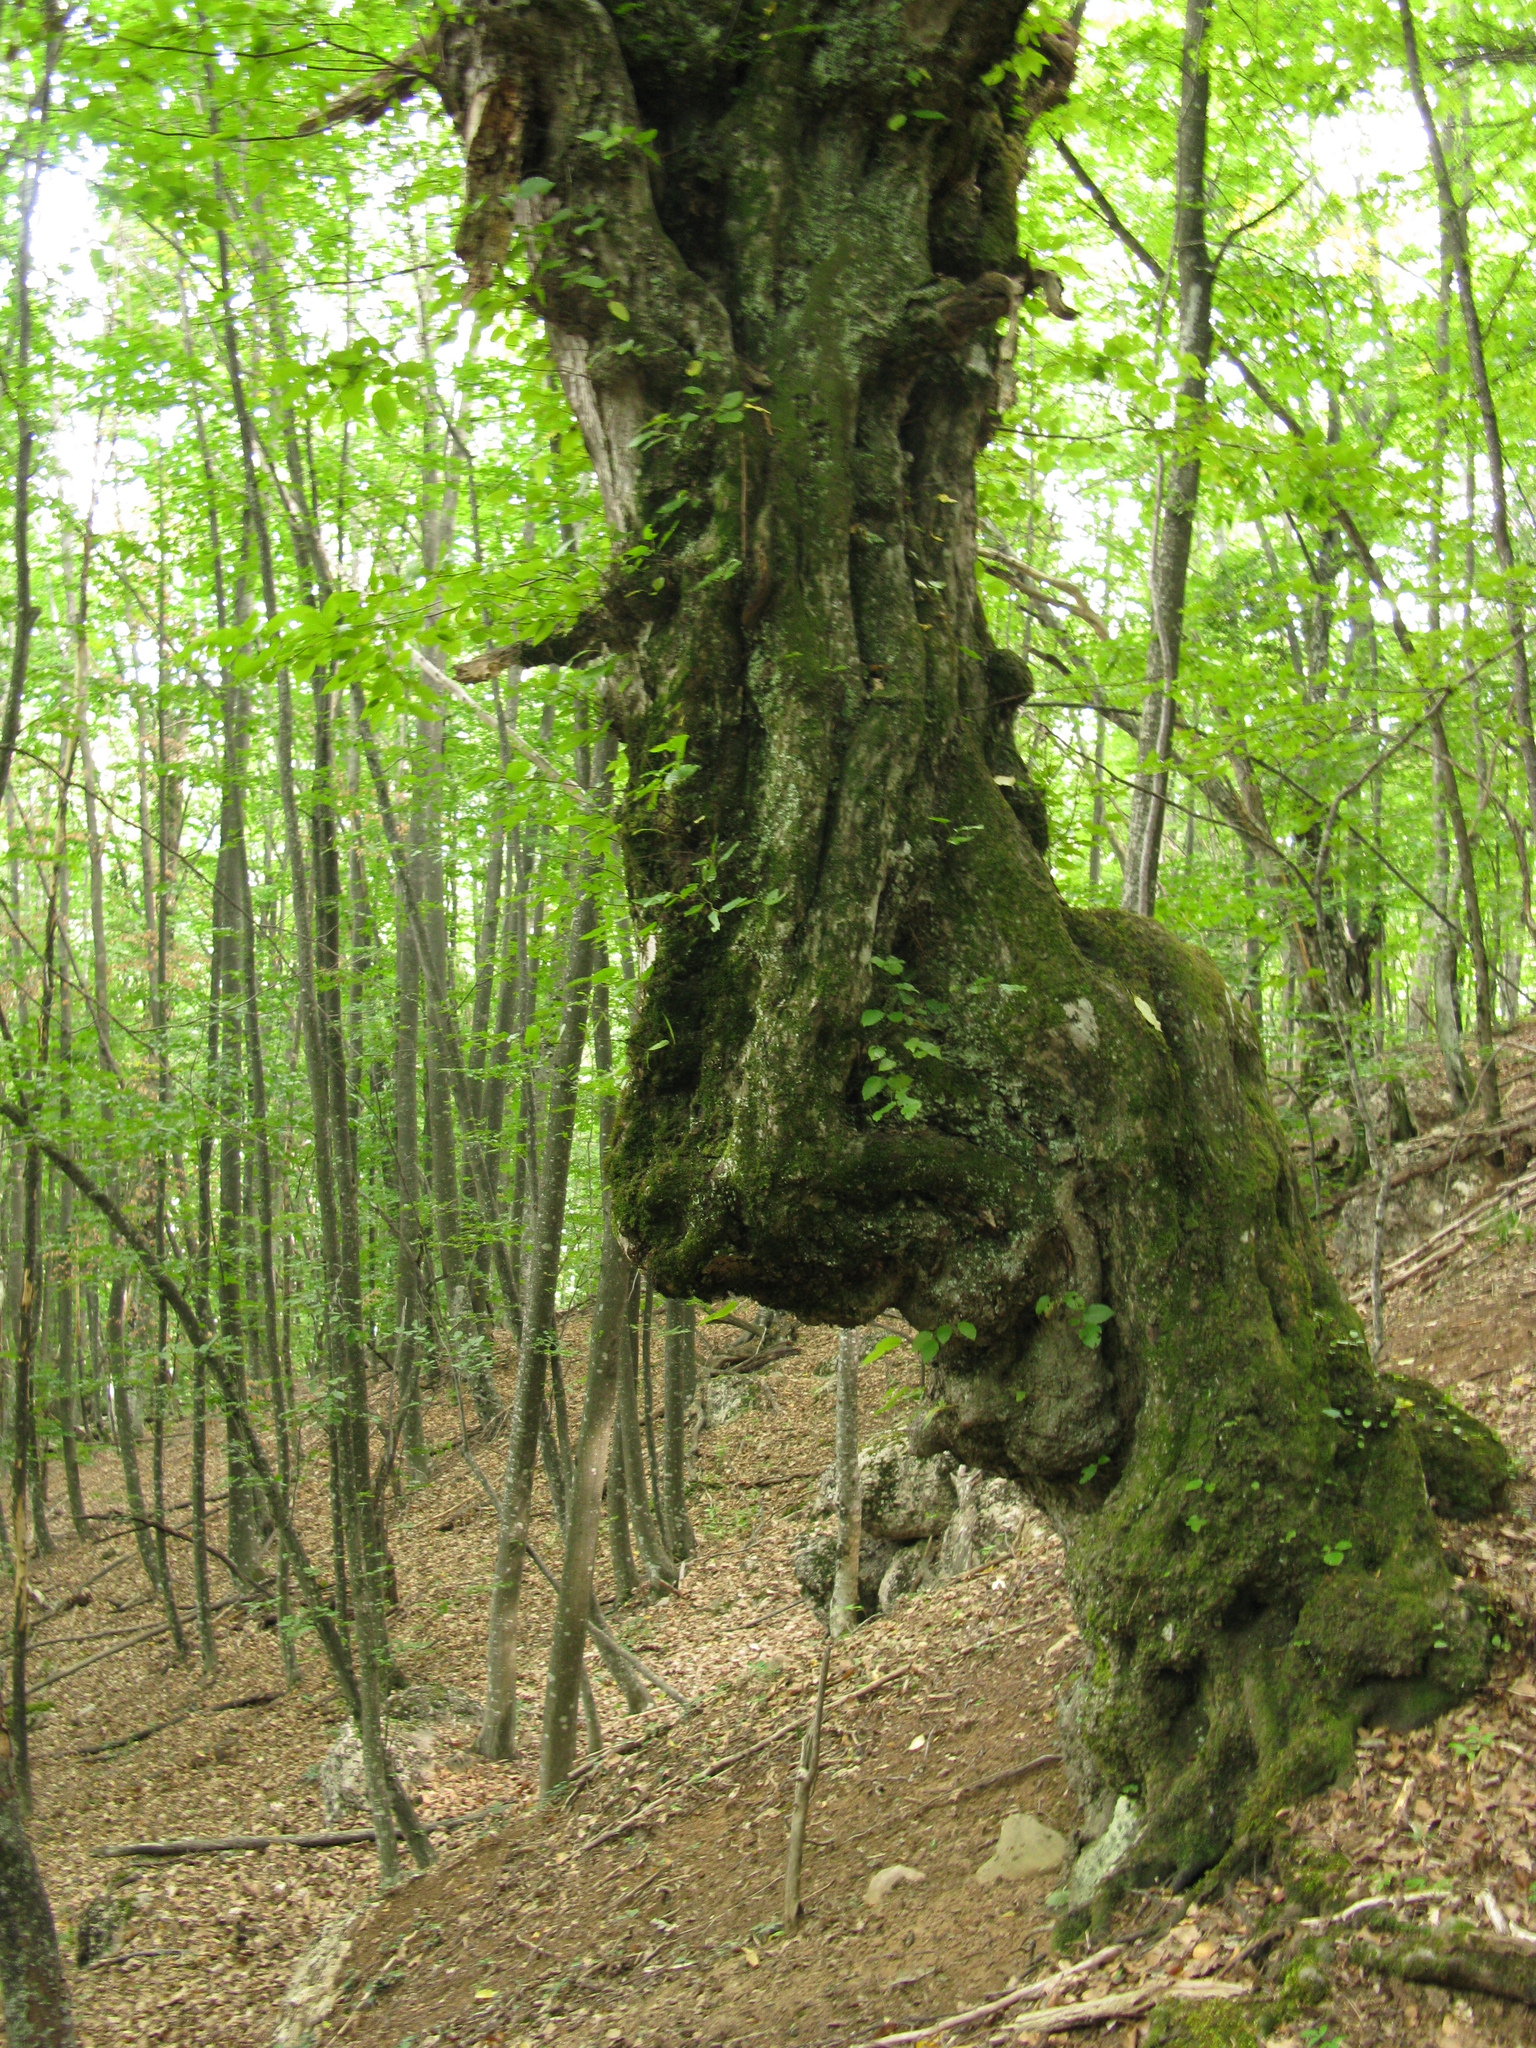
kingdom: Plantae
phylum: Tracheophyta
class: Magnoliopsida
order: Fagales
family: Fagaceae
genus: Fagus
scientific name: Fagus taurica
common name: Crimean beech
